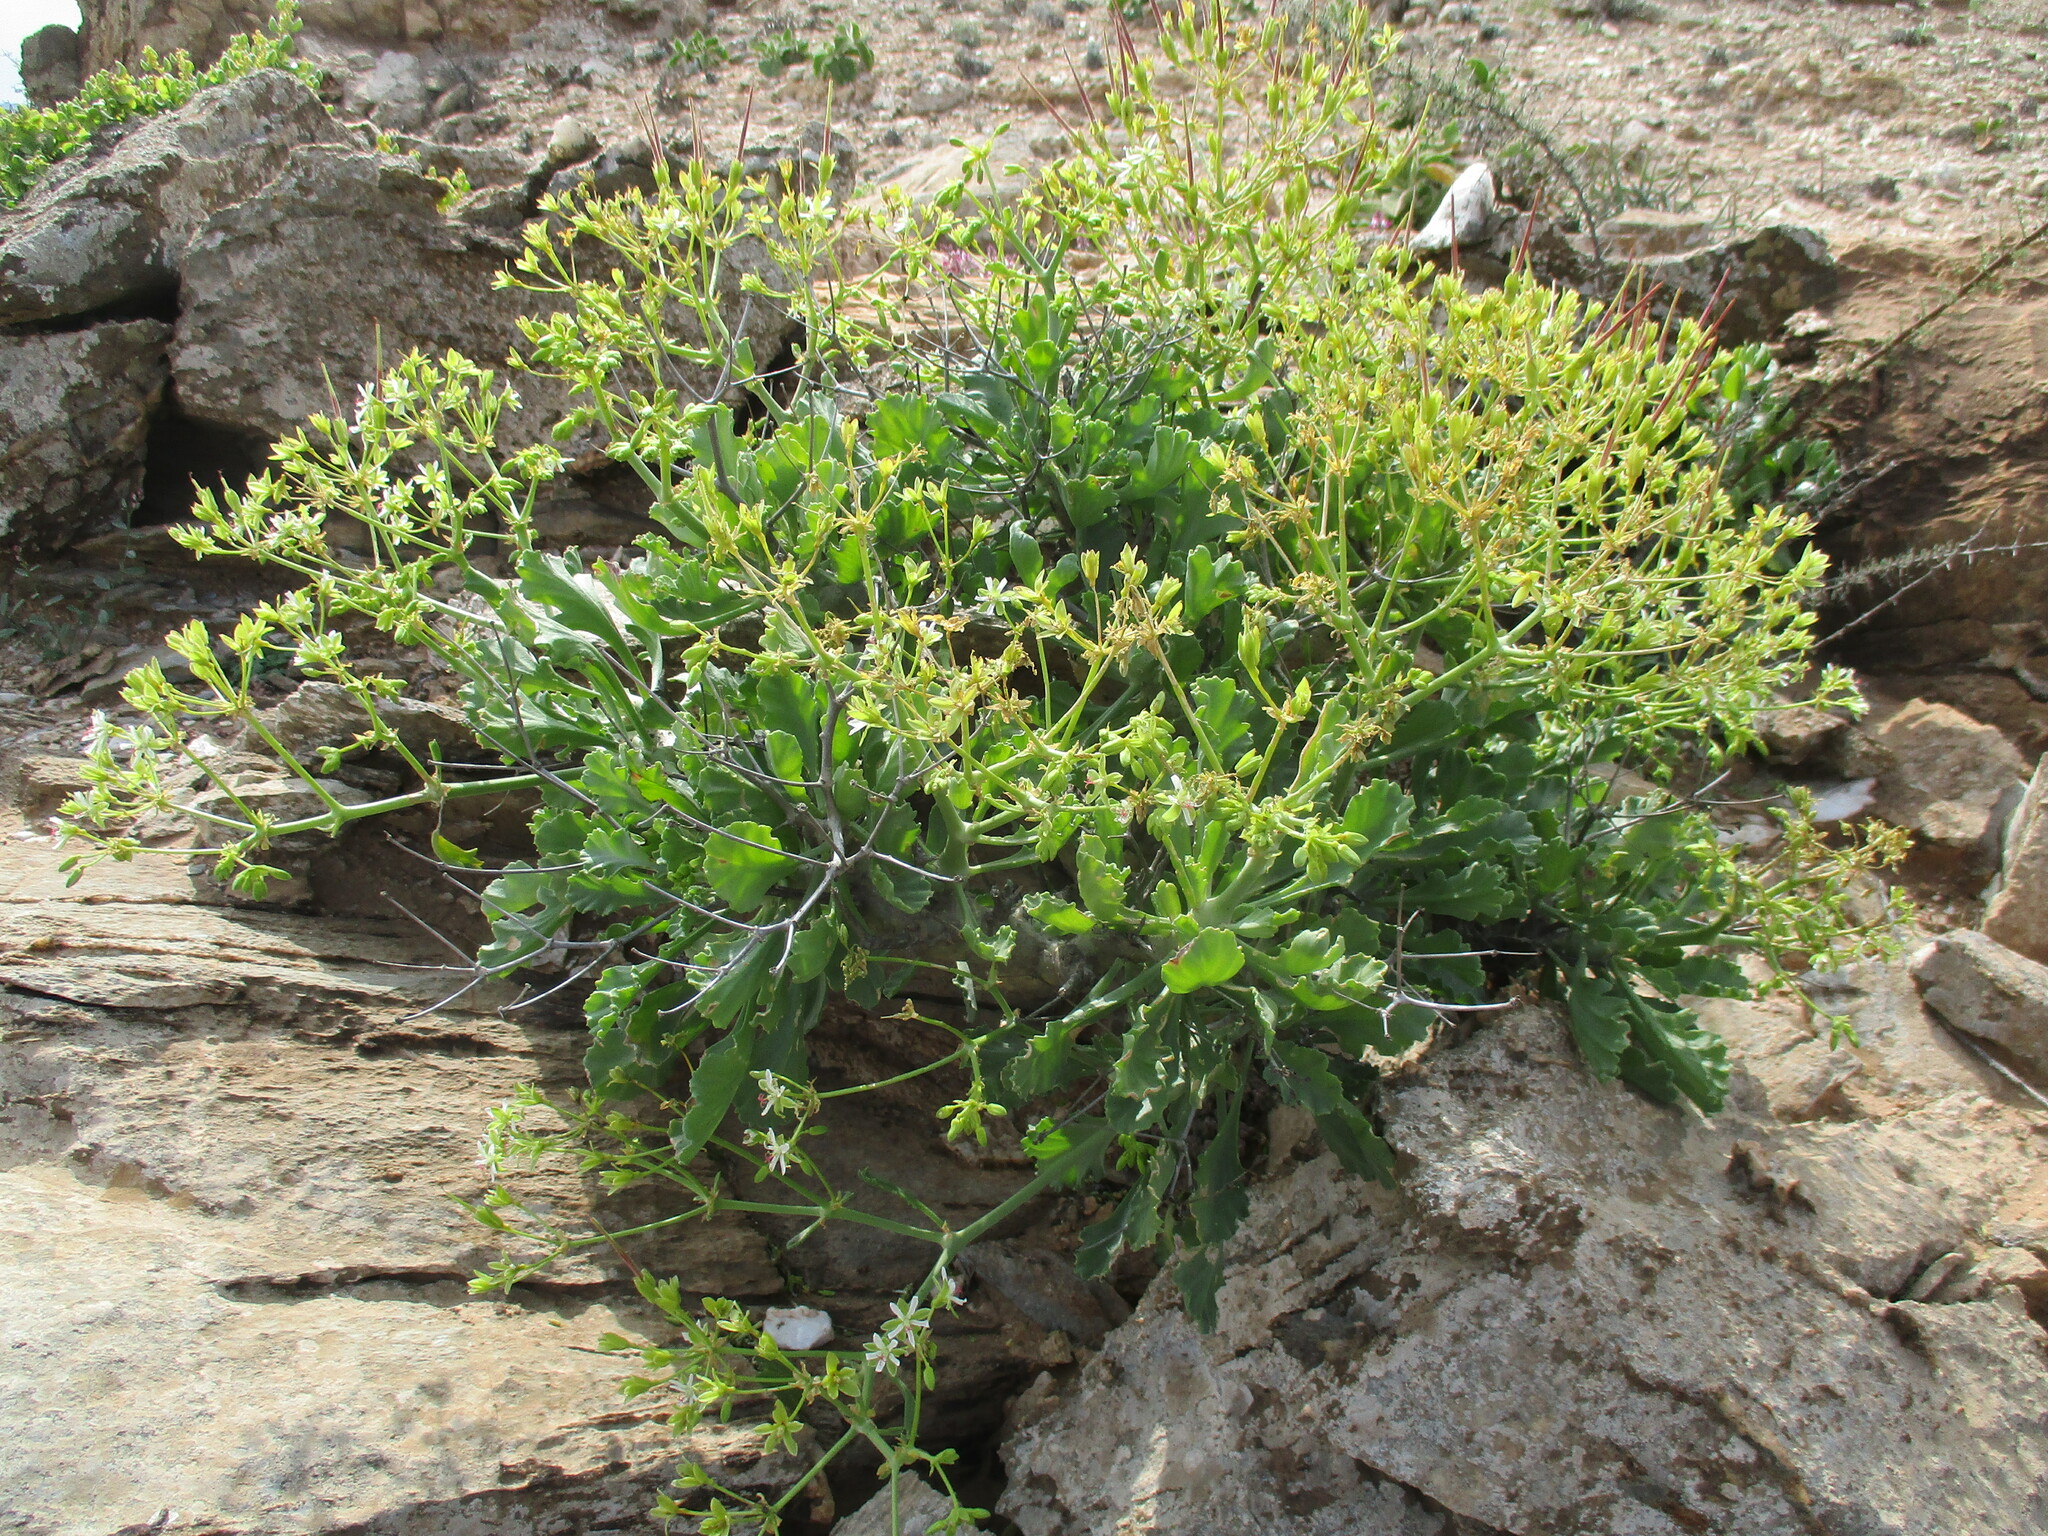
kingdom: Plantae
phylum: Tracheophyta
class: Magnoliopsida
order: Geraniales
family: Geraniaceae
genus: Pelargonium
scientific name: Pelargonium klinghardtense
